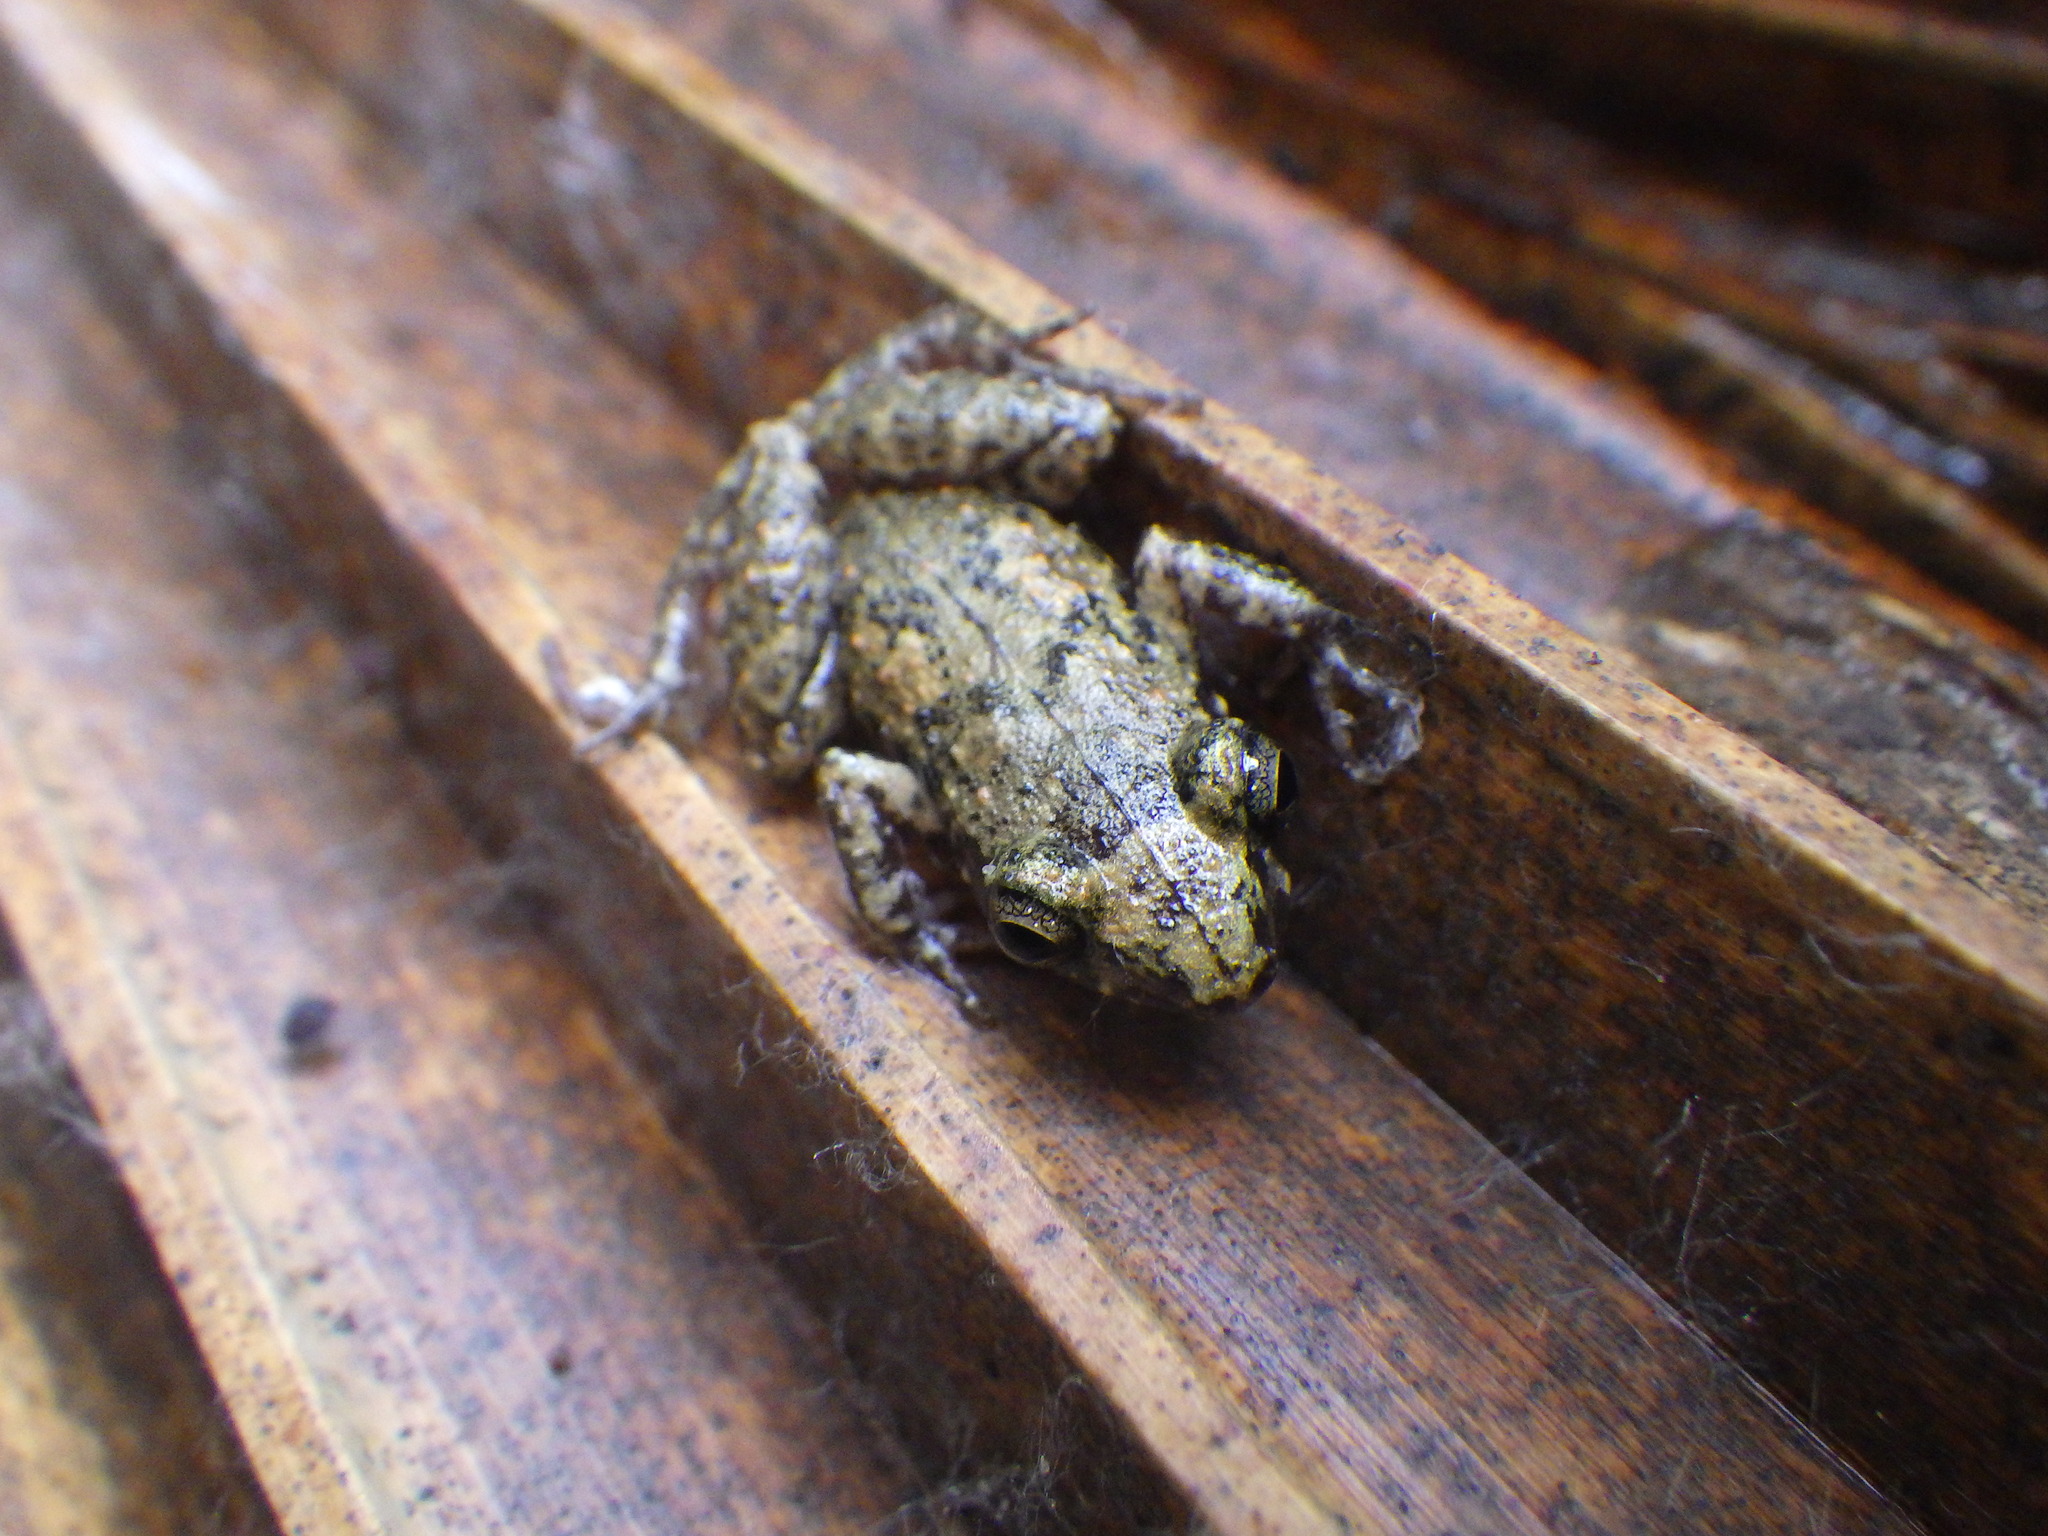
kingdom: Animalia
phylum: Chordata
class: Amphibia
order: Anura
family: Eleutherodactylidae
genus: Eleutherodactylus
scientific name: Eleutherodactylus planirostris
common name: Greenhouse frog
